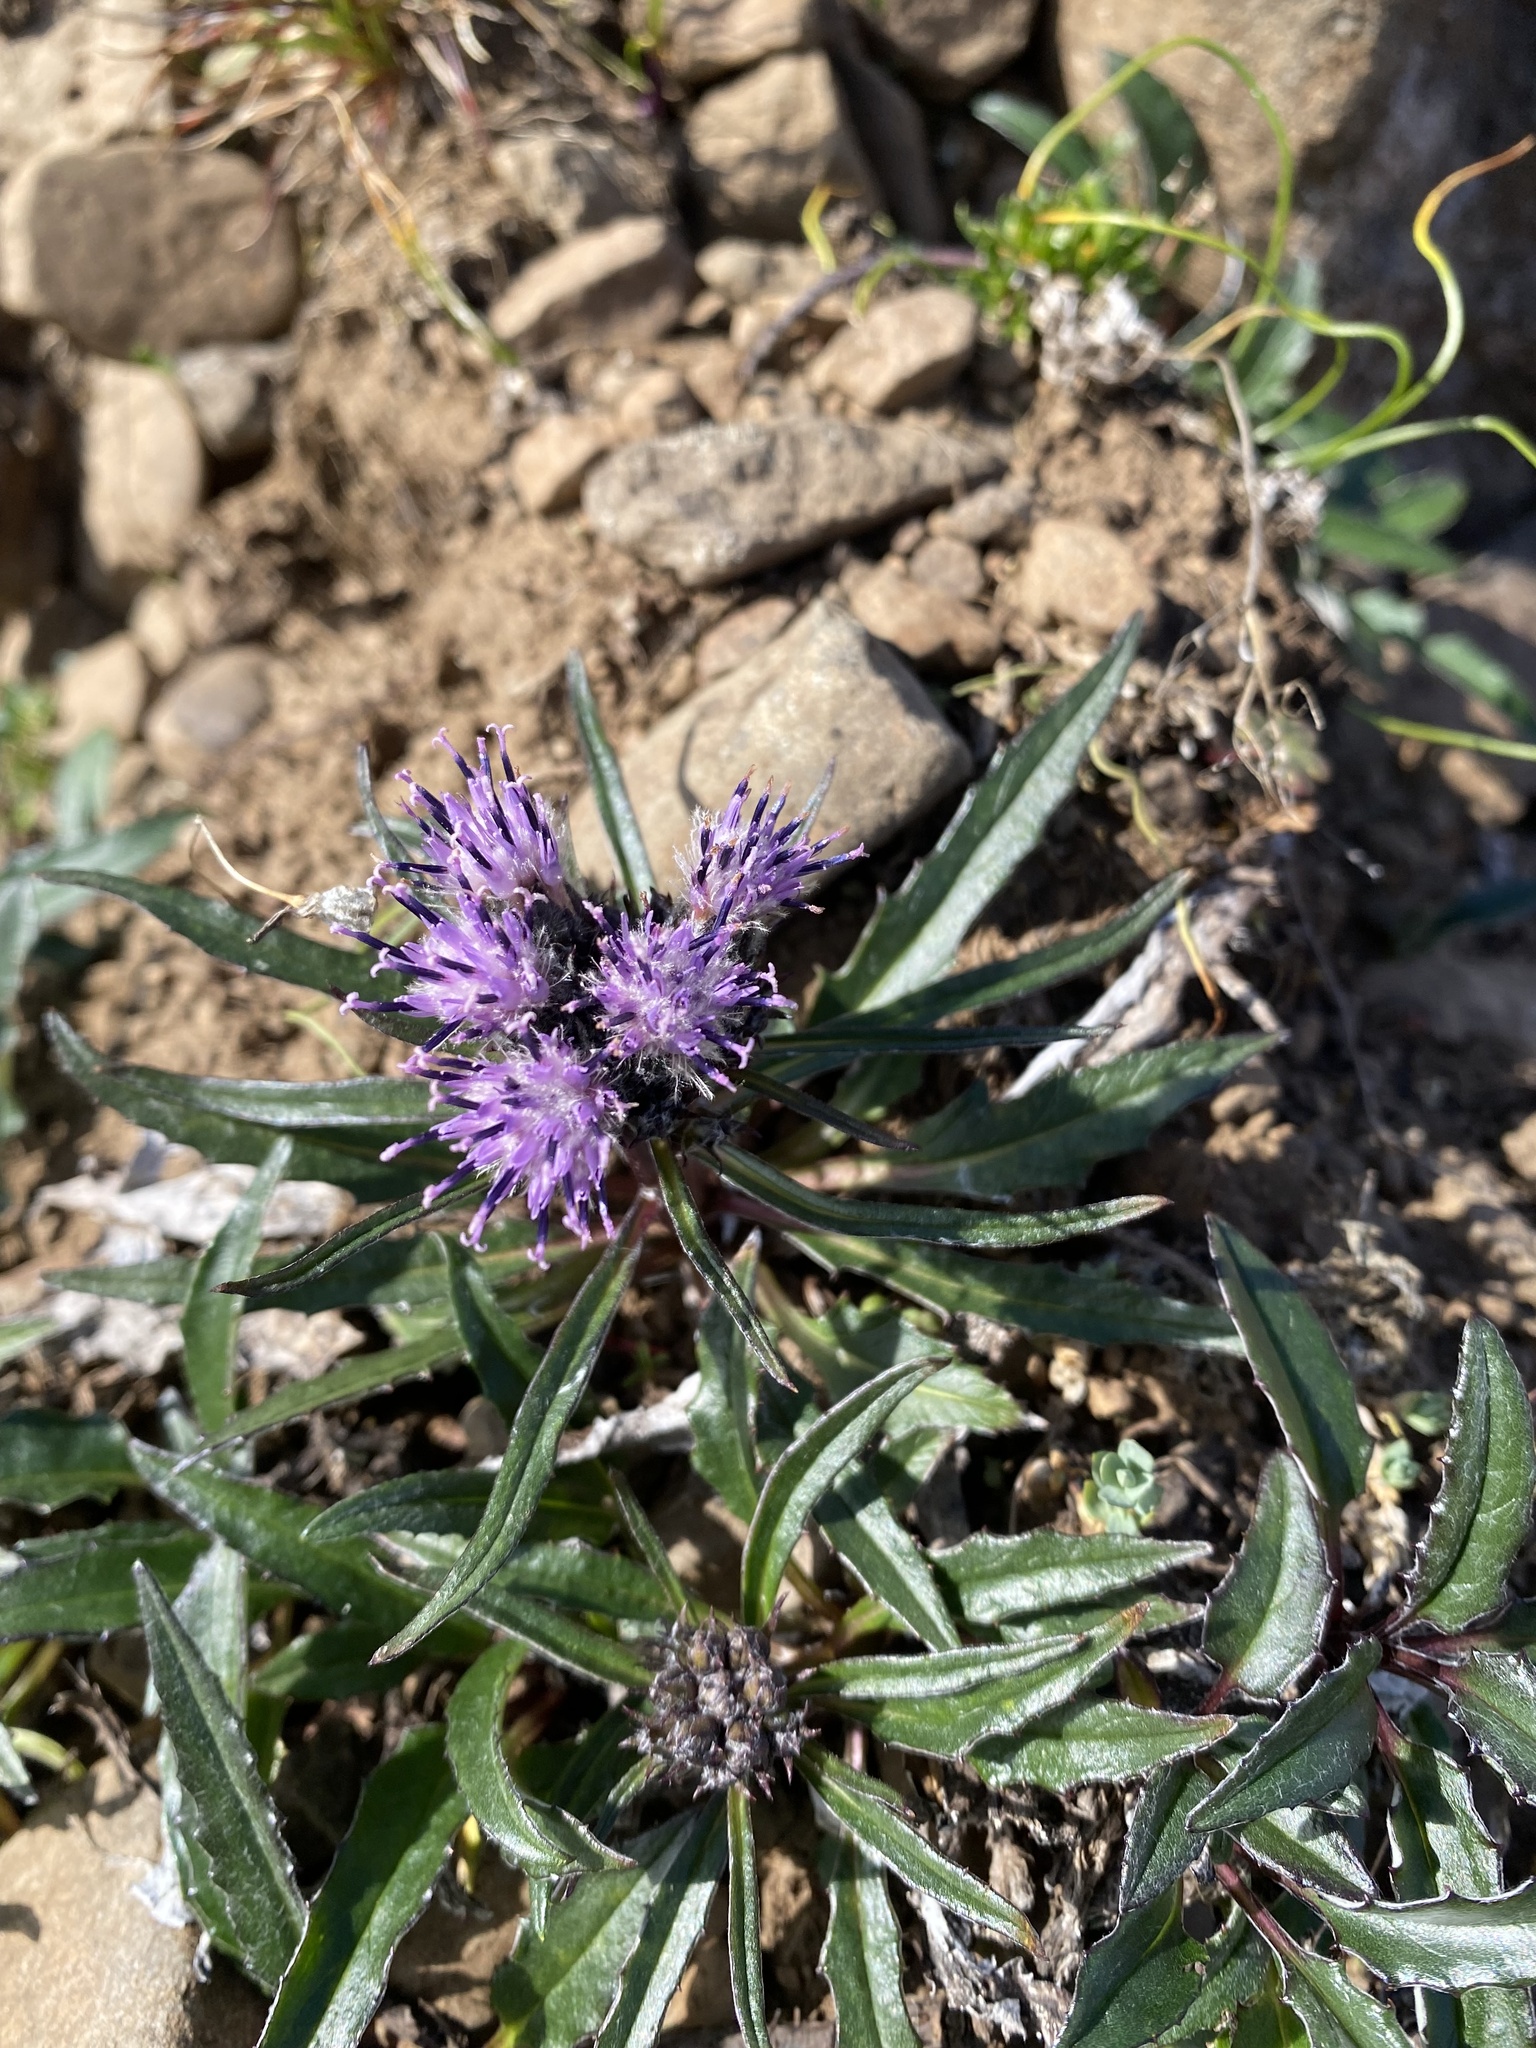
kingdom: Plantae
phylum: Tracheophyta
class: Magnoliopsida
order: Asterales
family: Asteraceae
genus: Saussurea
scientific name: Saussurea tilesii
